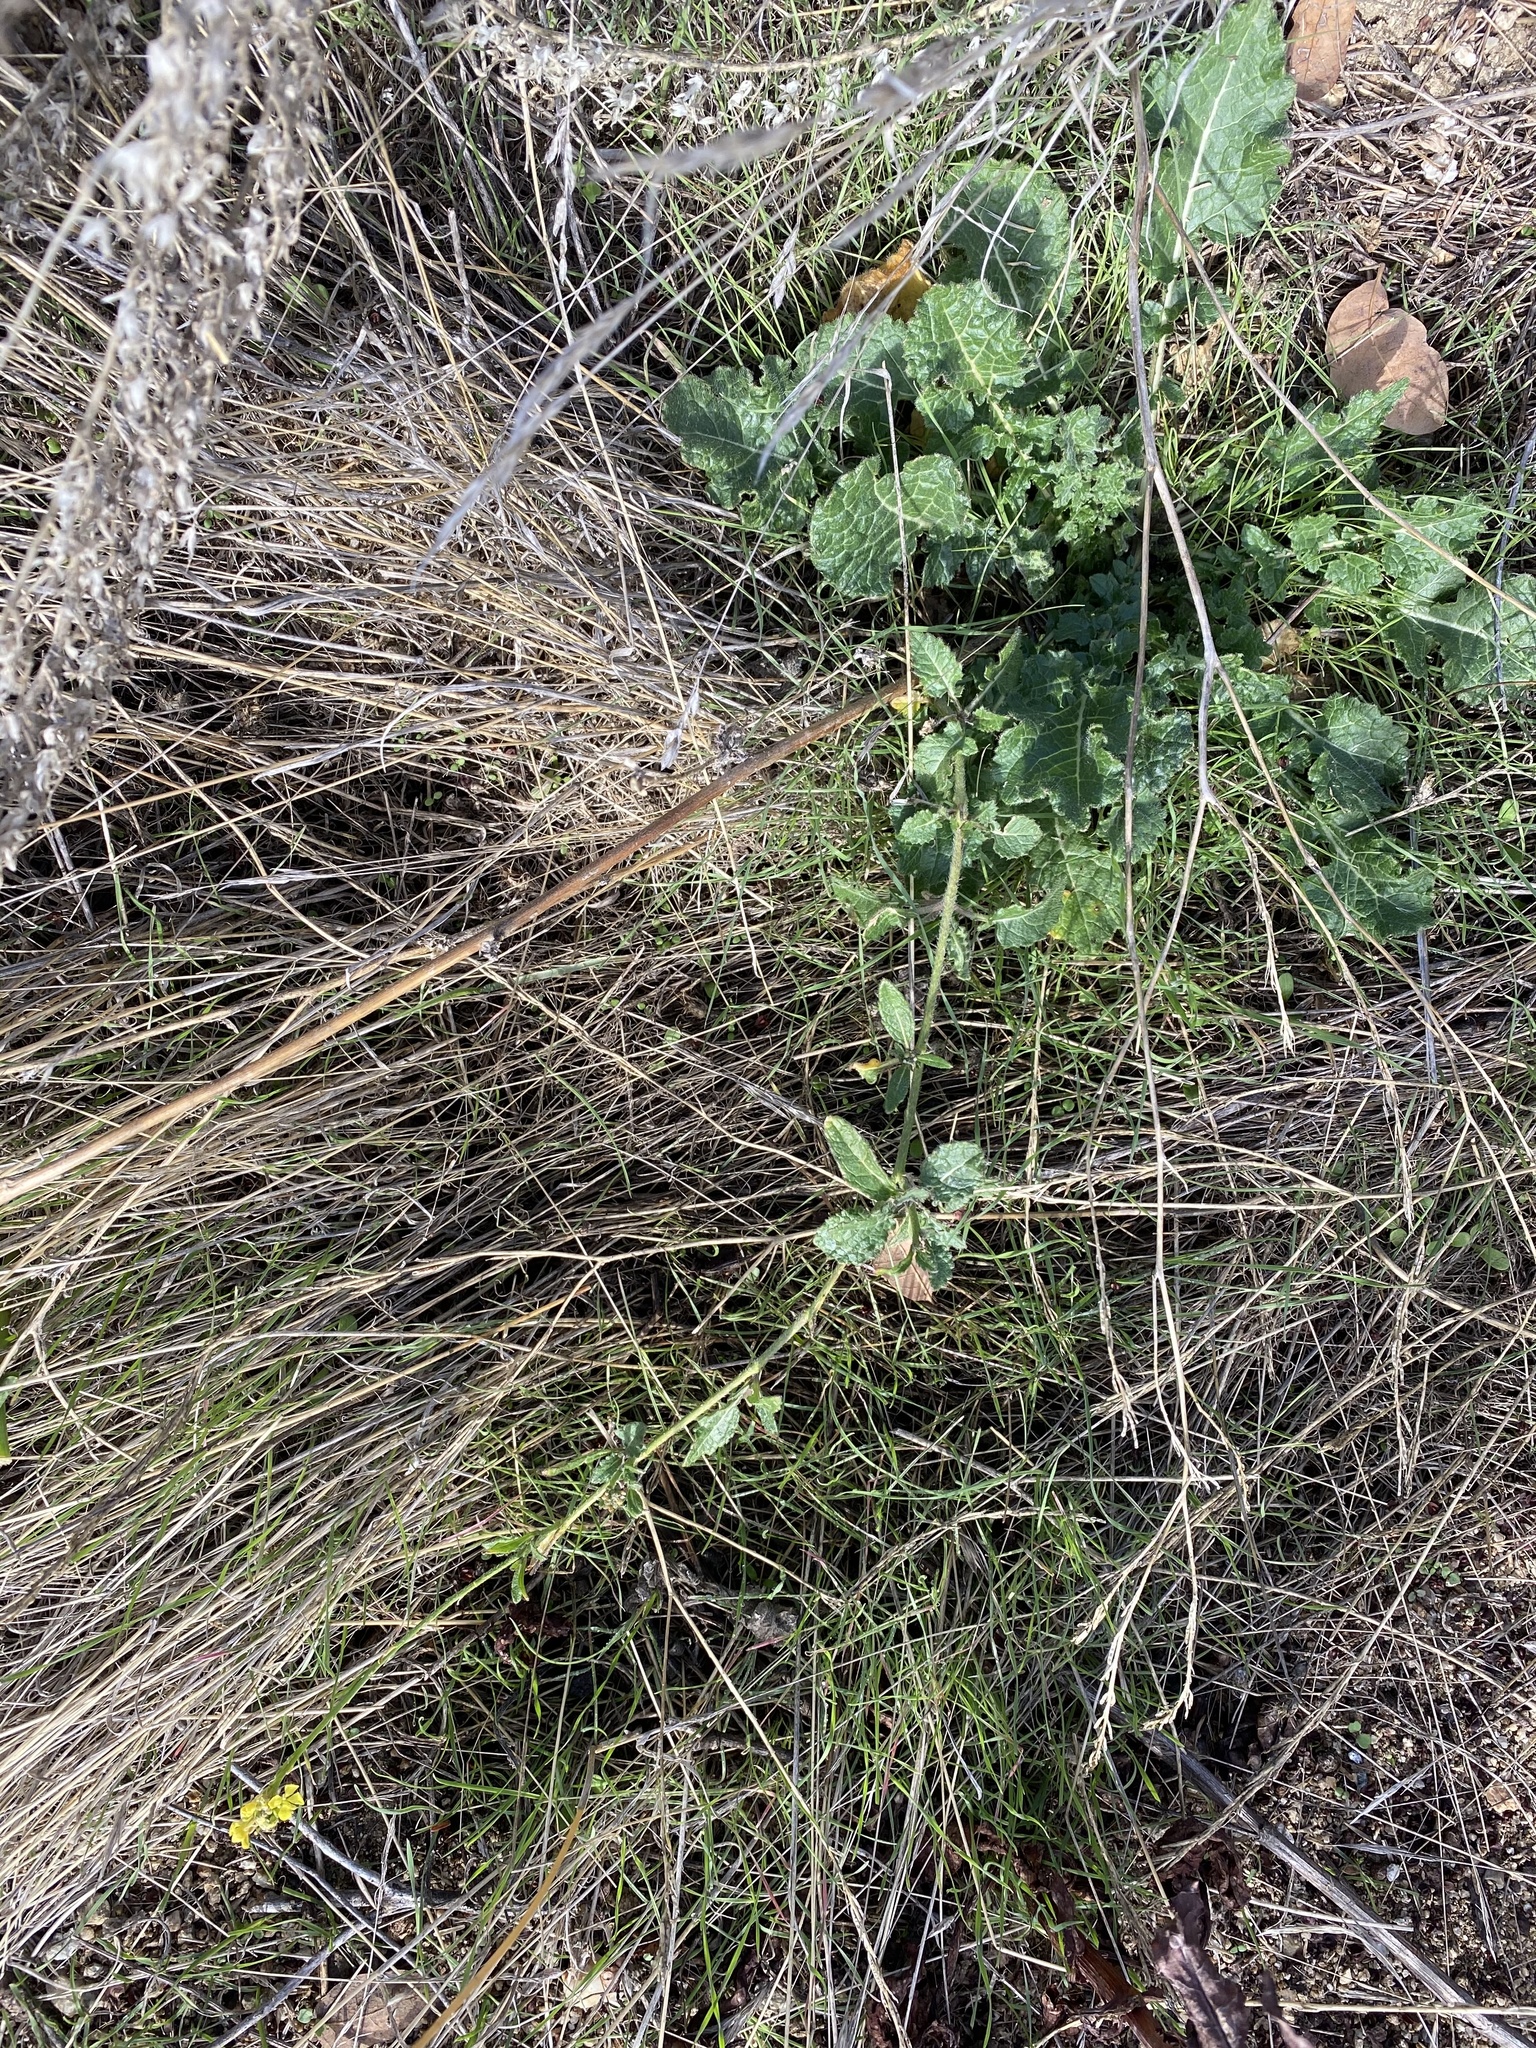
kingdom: Plantae
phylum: Tracheophyta
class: Magnoliopsida
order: Brassicales
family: Brassicaceae
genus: Hirschfeldia
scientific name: Hirschfeldia incana
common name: Hoary mustard
